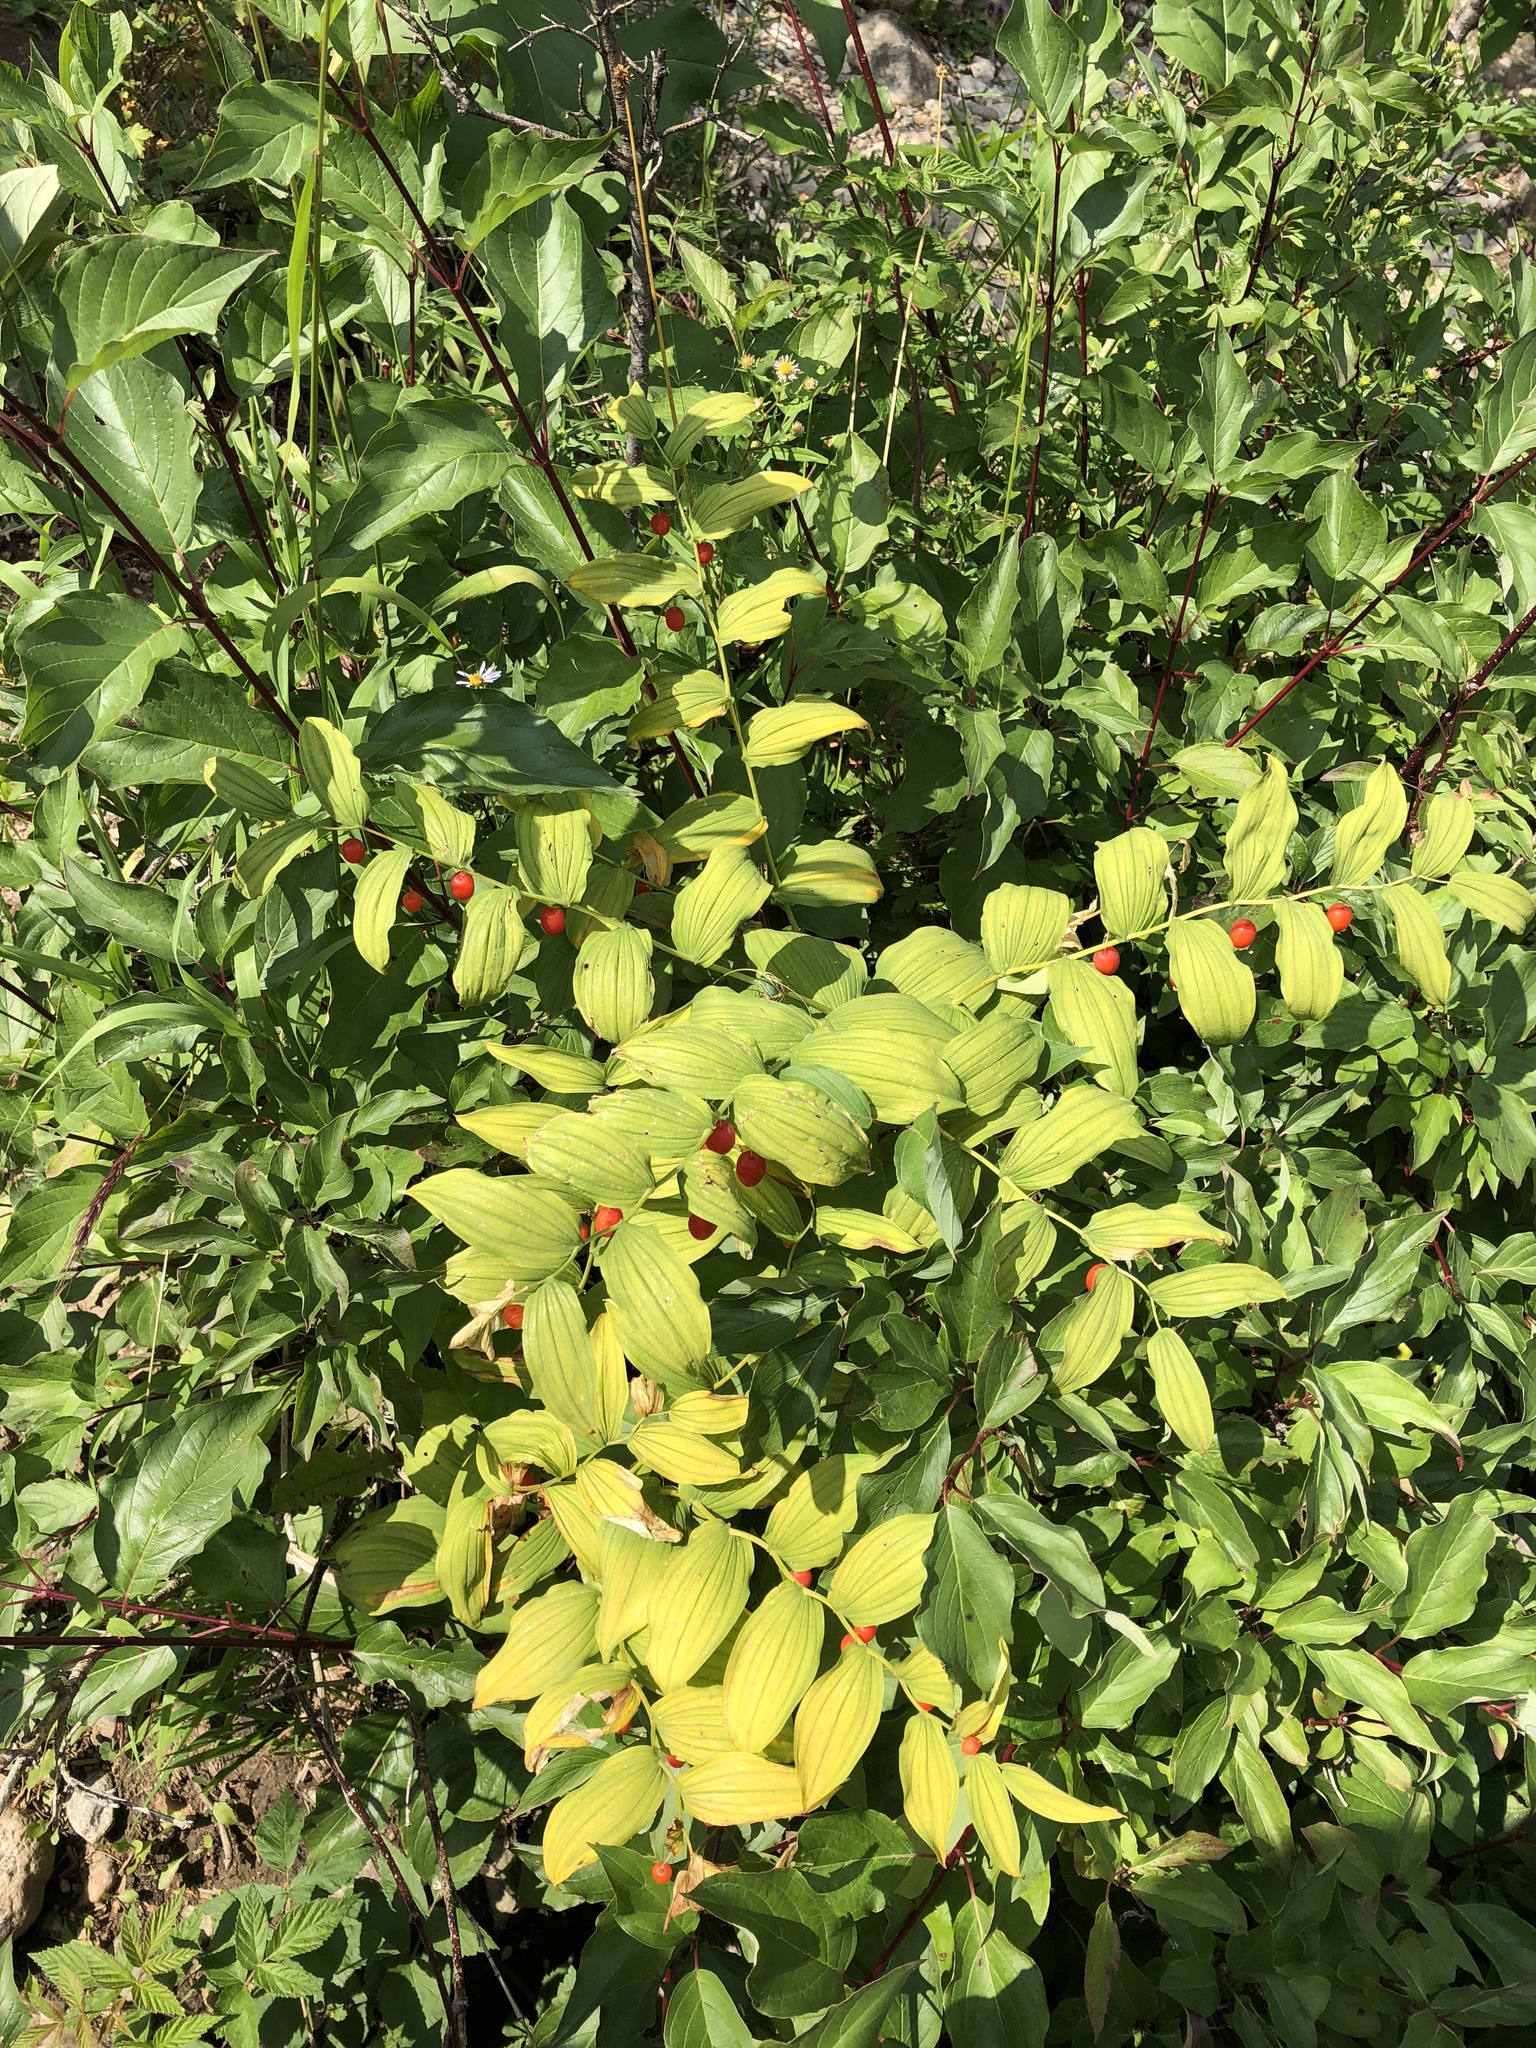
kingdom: Plantae
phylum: Tracheophyta
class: Liliopsida
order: Liliales
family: Liliaceae
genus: Streptopus
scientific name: Streptopus amplexifolius
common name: Clasp twisted stalk
